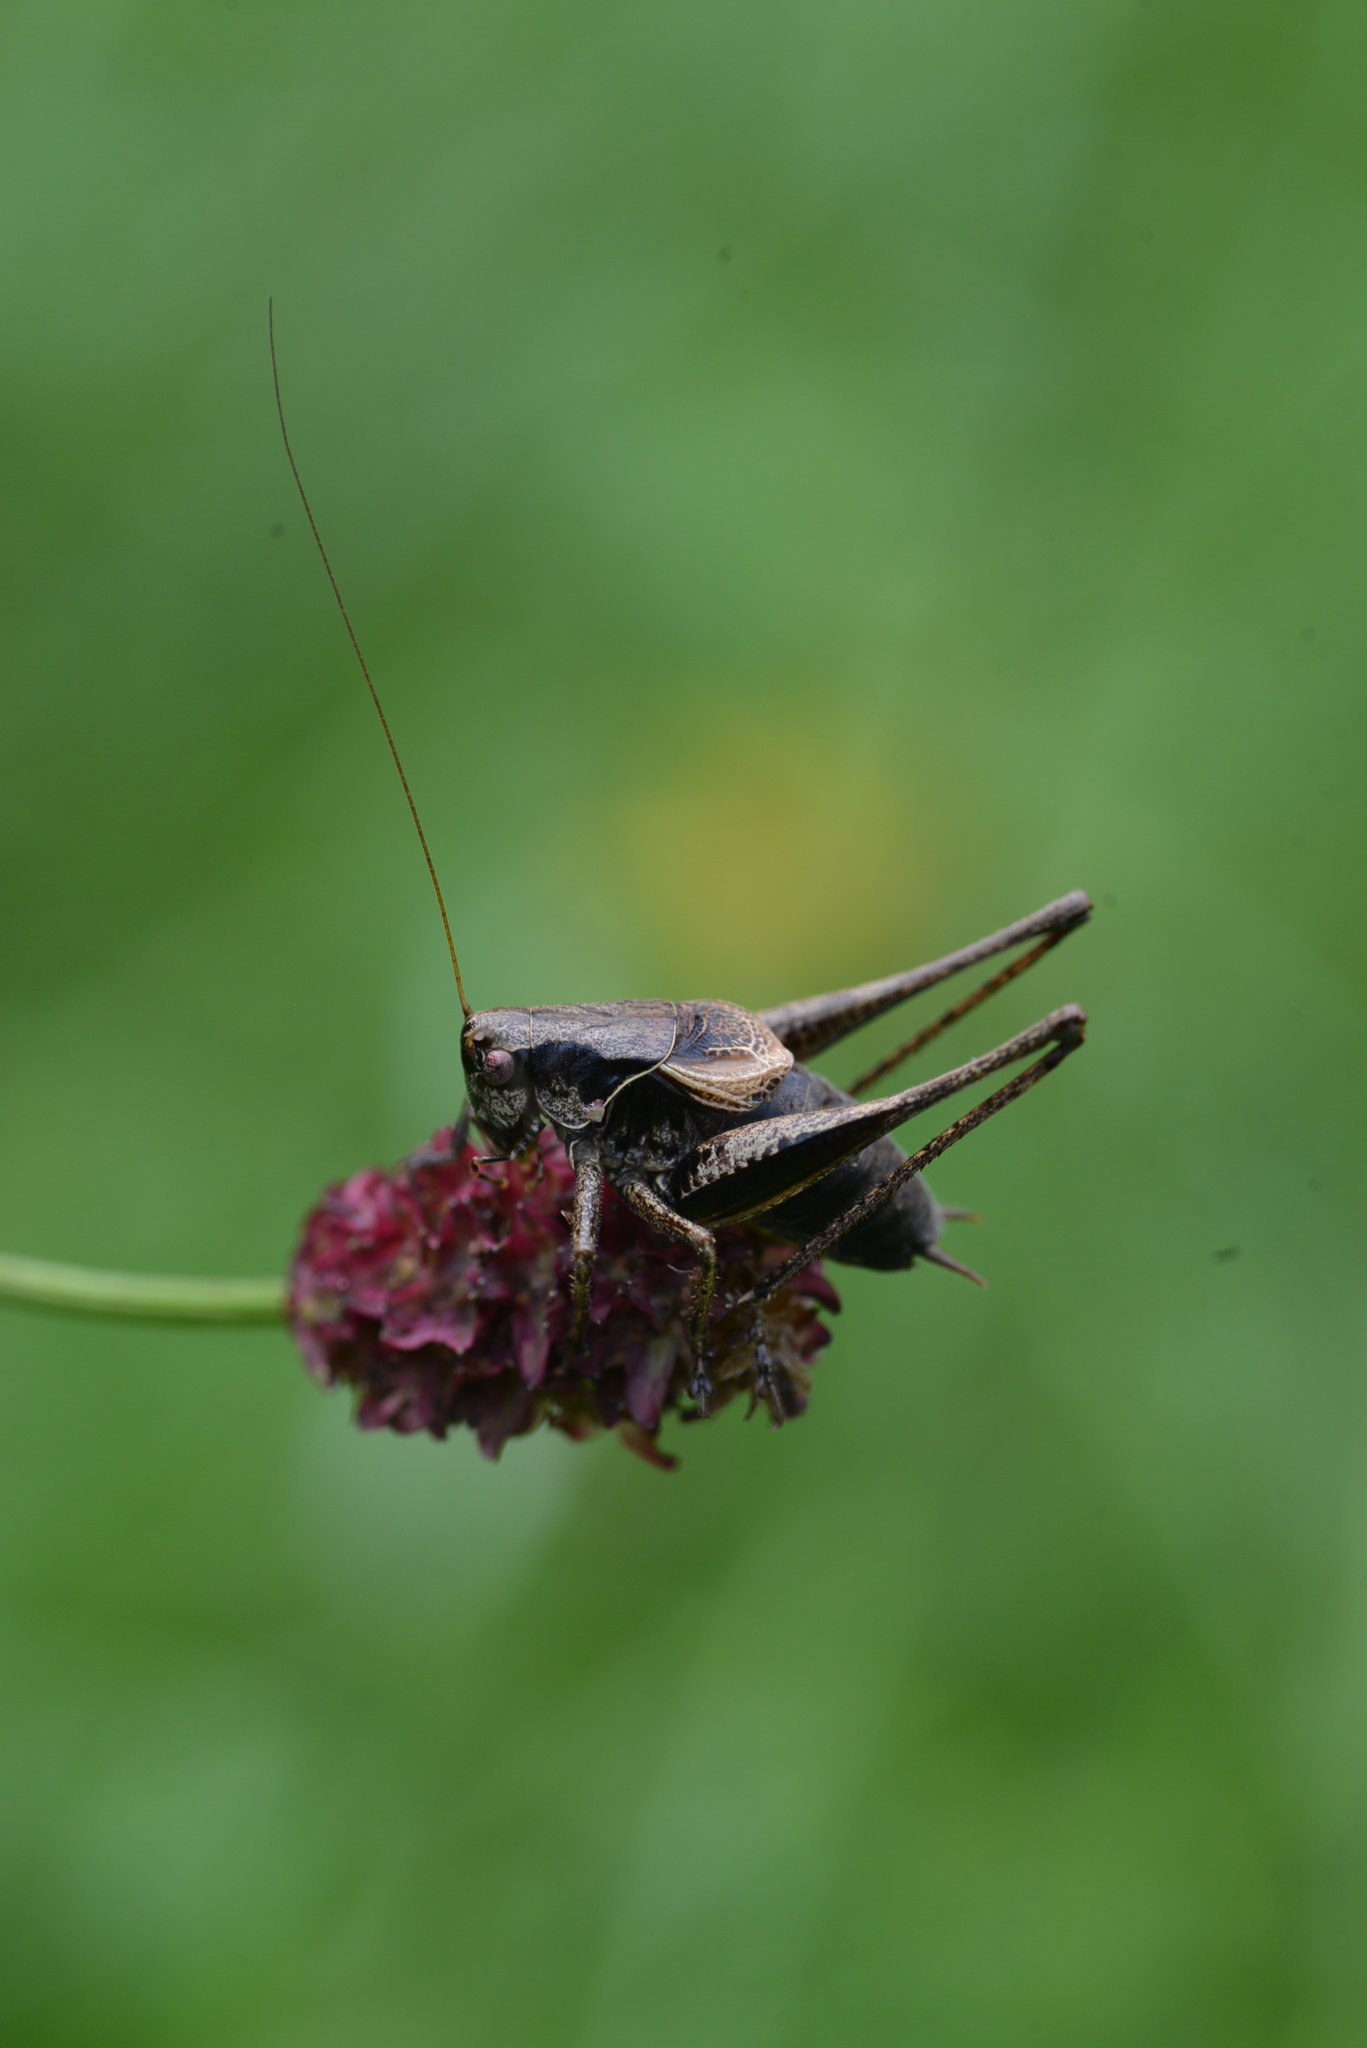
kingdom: Animalia
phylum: Arthropoda
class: Insecta
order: Orthoptera
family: Tettigoniidae
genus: Pholidoptera
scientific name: Pholidoptera griseoaptera
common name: Dark bush-cricket
